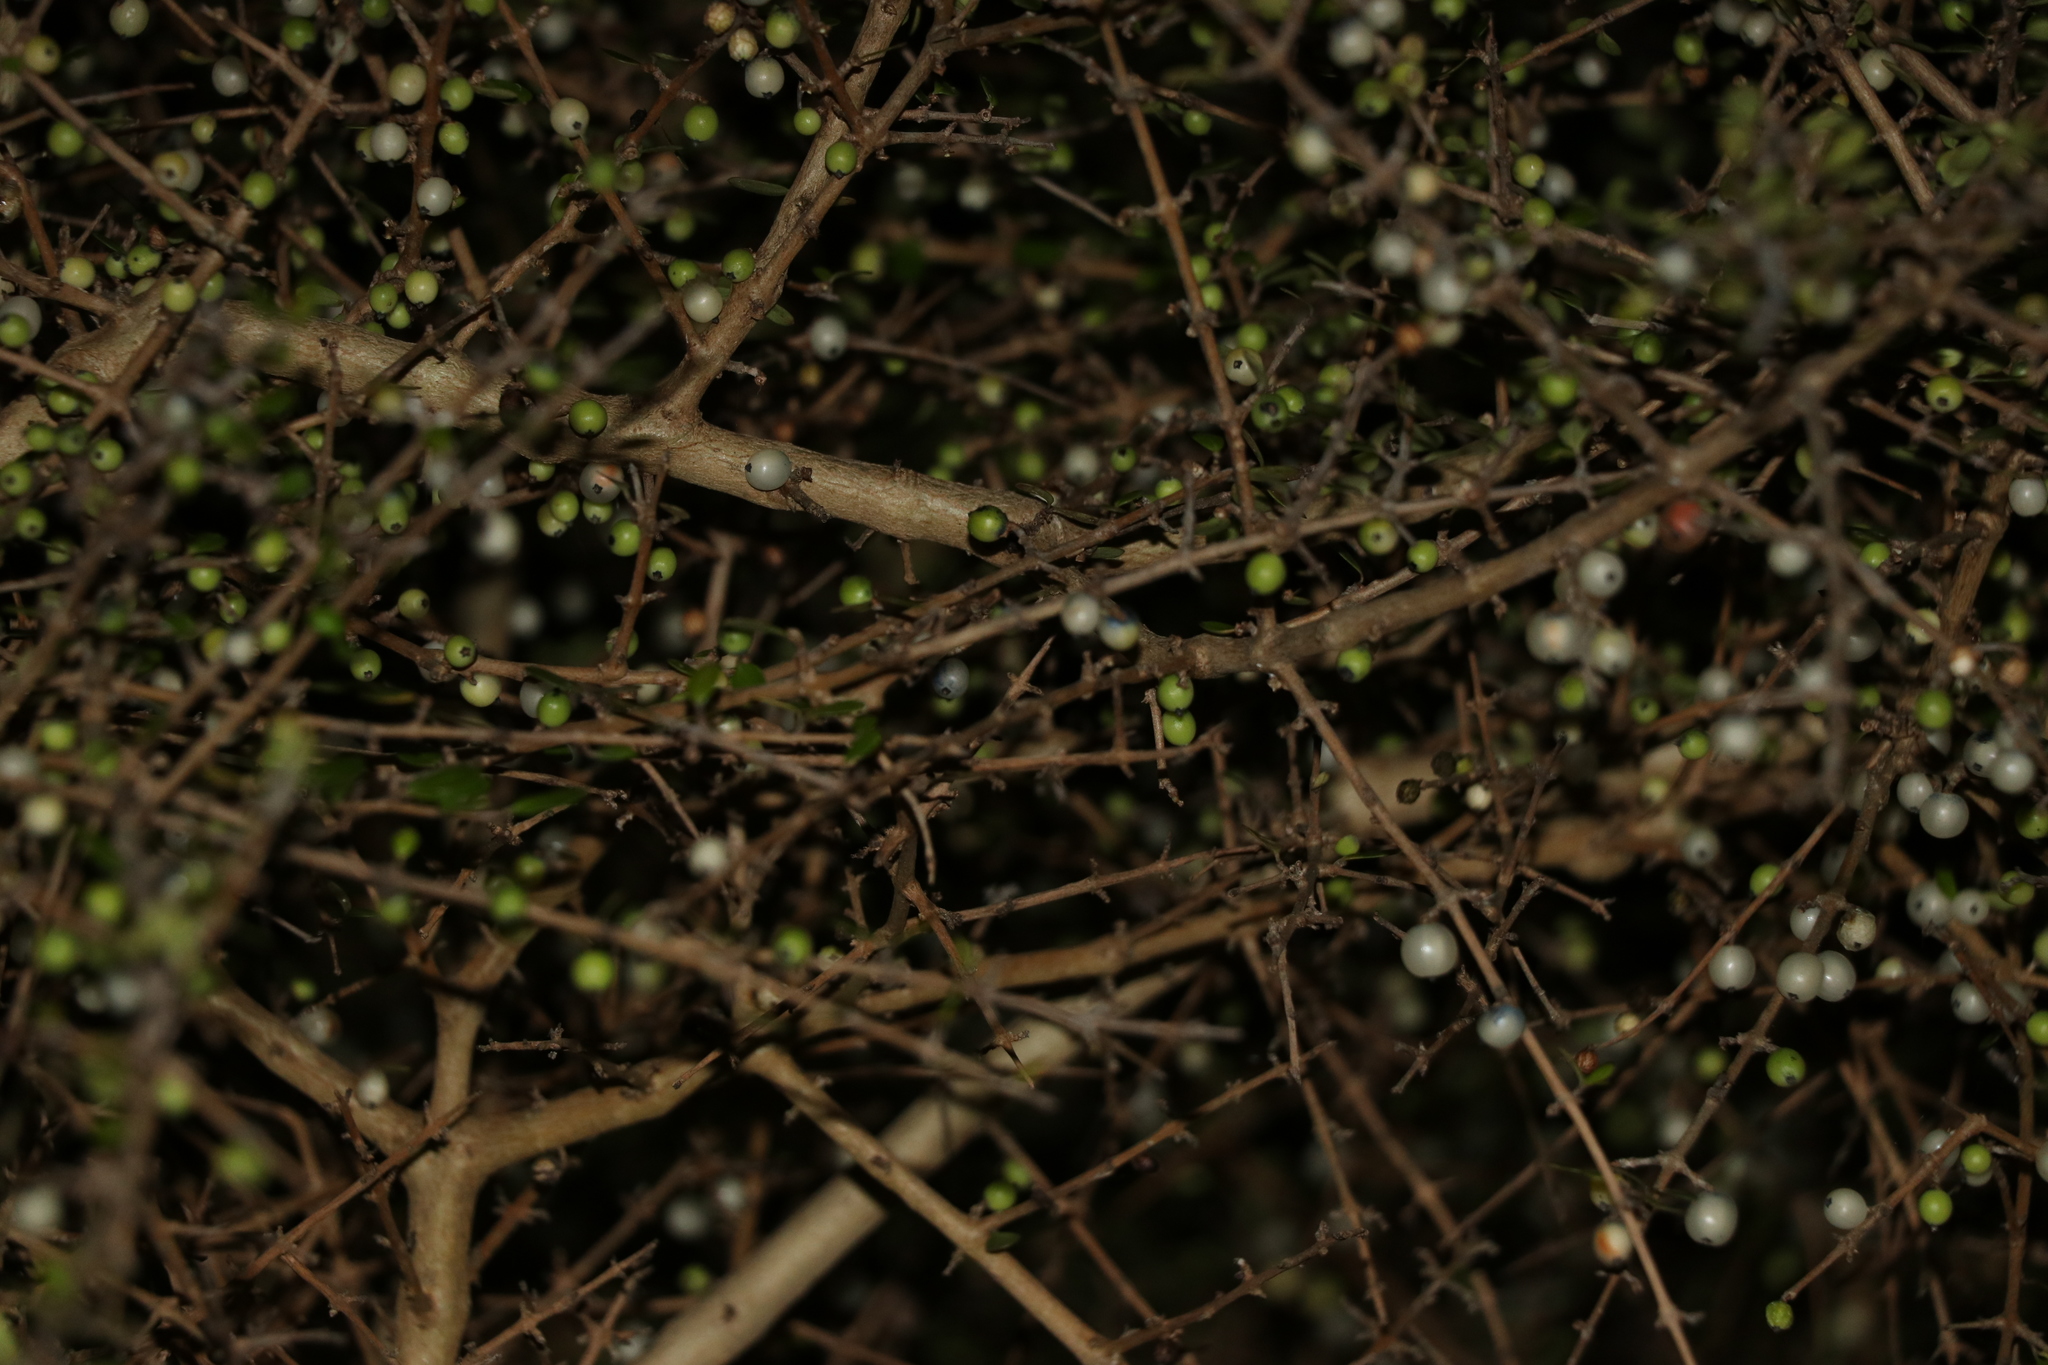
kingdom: Plantae
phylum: Tracheophyta
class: Magnoliopsida
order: Gentianales
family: Rubiaceae
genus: Coprosma
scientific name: Coprosma propinqua
